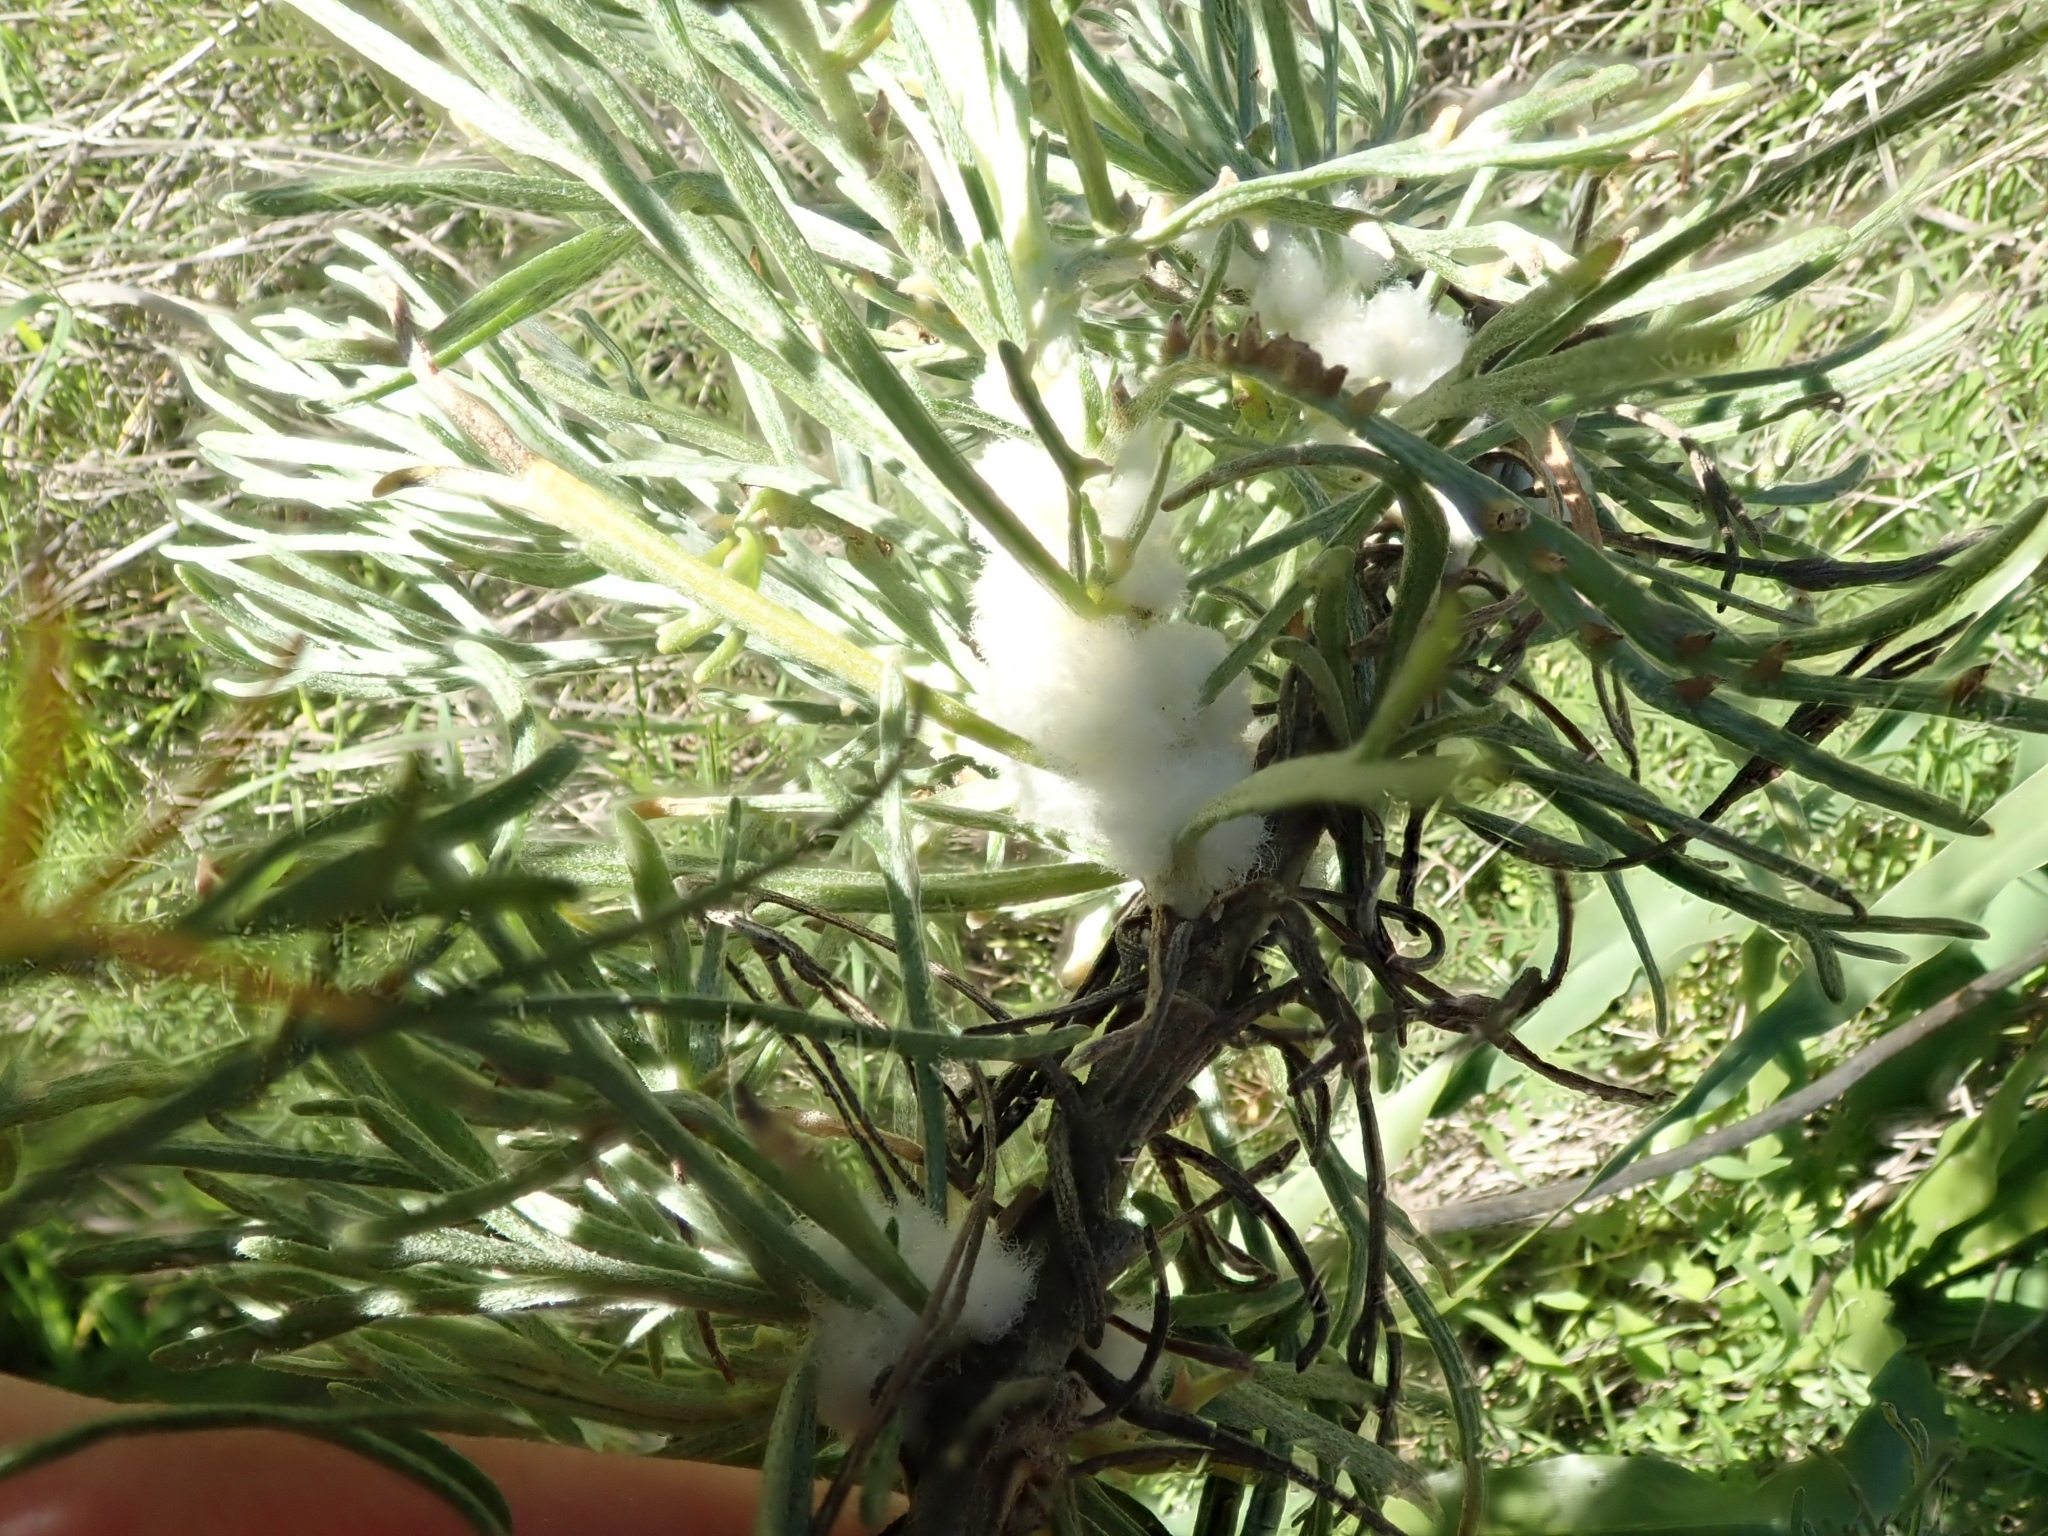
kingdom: Animalia
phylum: Arthropoda
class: Insecta
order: Diptera
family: Cecidomyiidae
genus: Rhopalomyia
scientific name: Rhopalomyia floccosa
